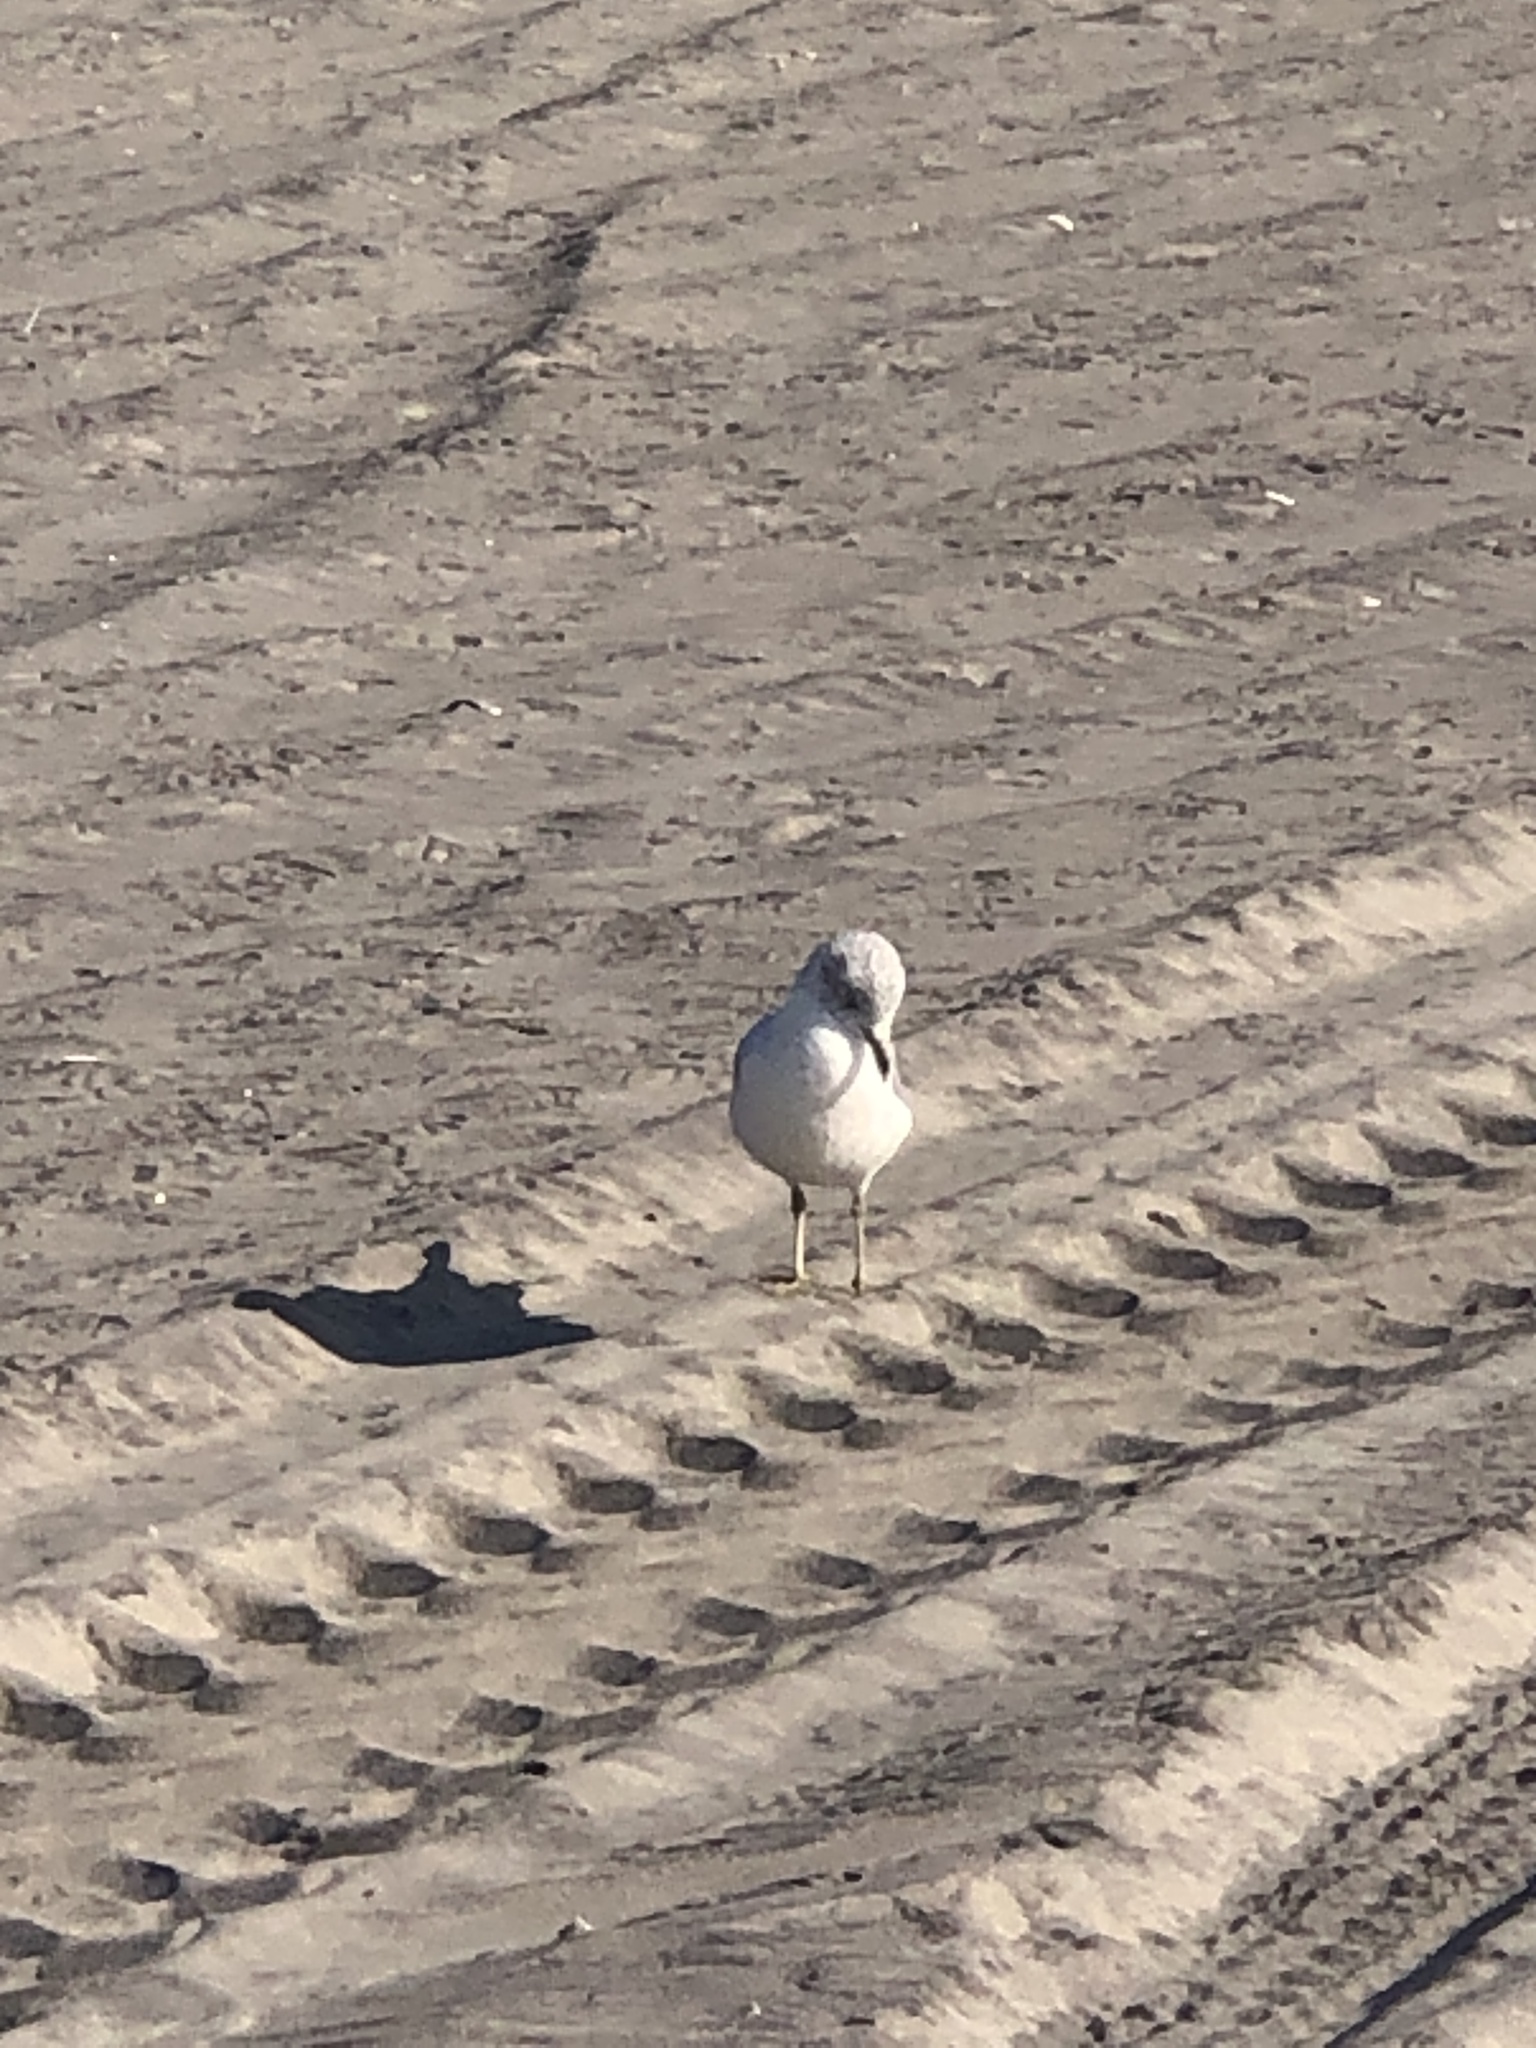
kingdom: Animalia
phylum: Chordata
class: Aves
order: Charadriiformes
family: Laridae
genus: Larus
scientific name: Larus delawarensis
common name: Ring-billed gull
